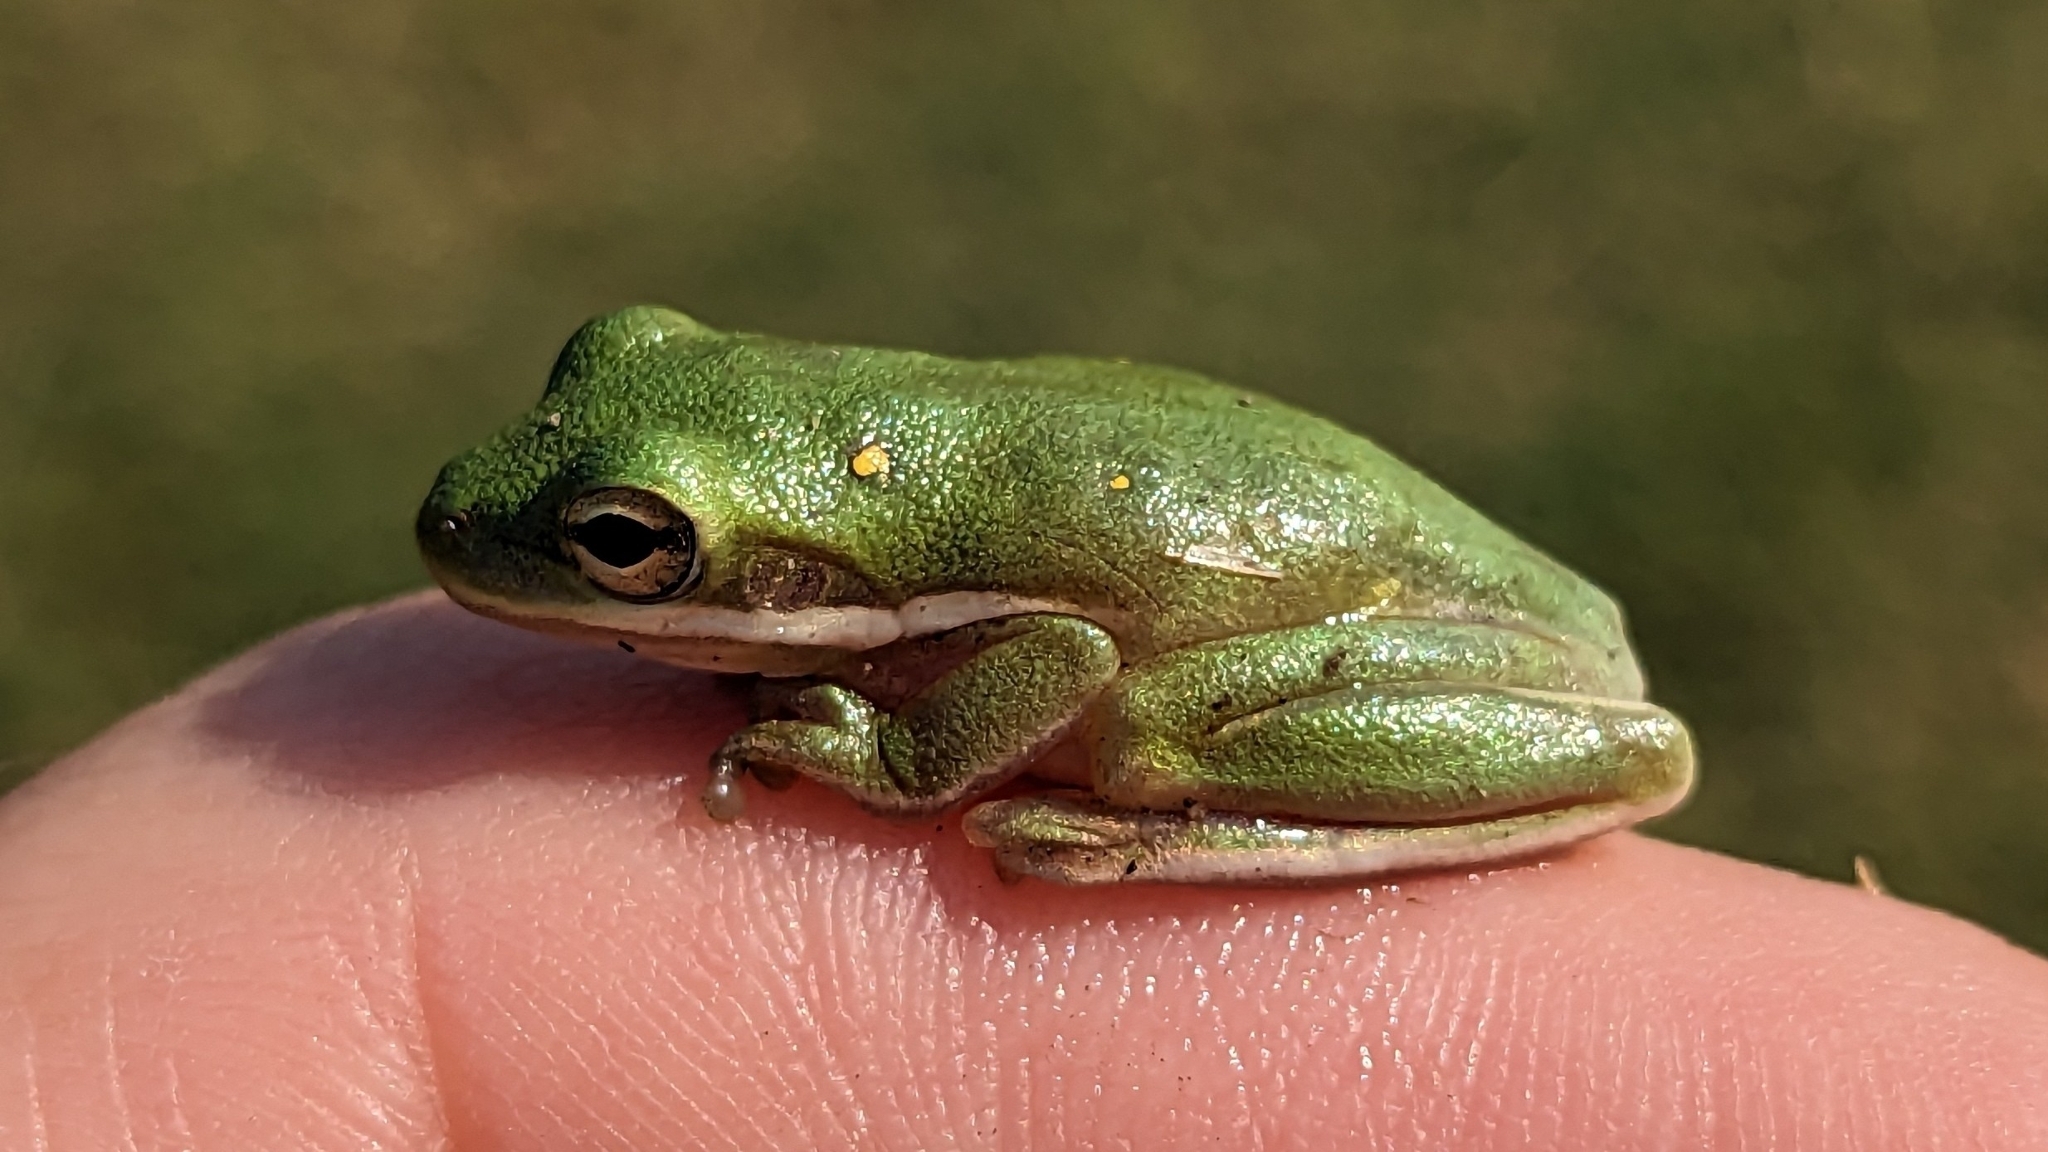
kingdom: Animalia
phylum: Chordata
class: Amphibia
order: Anura
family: Hylidae
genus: Dryophytes
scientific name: Dryophytes cinereus
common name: Green treefrog
